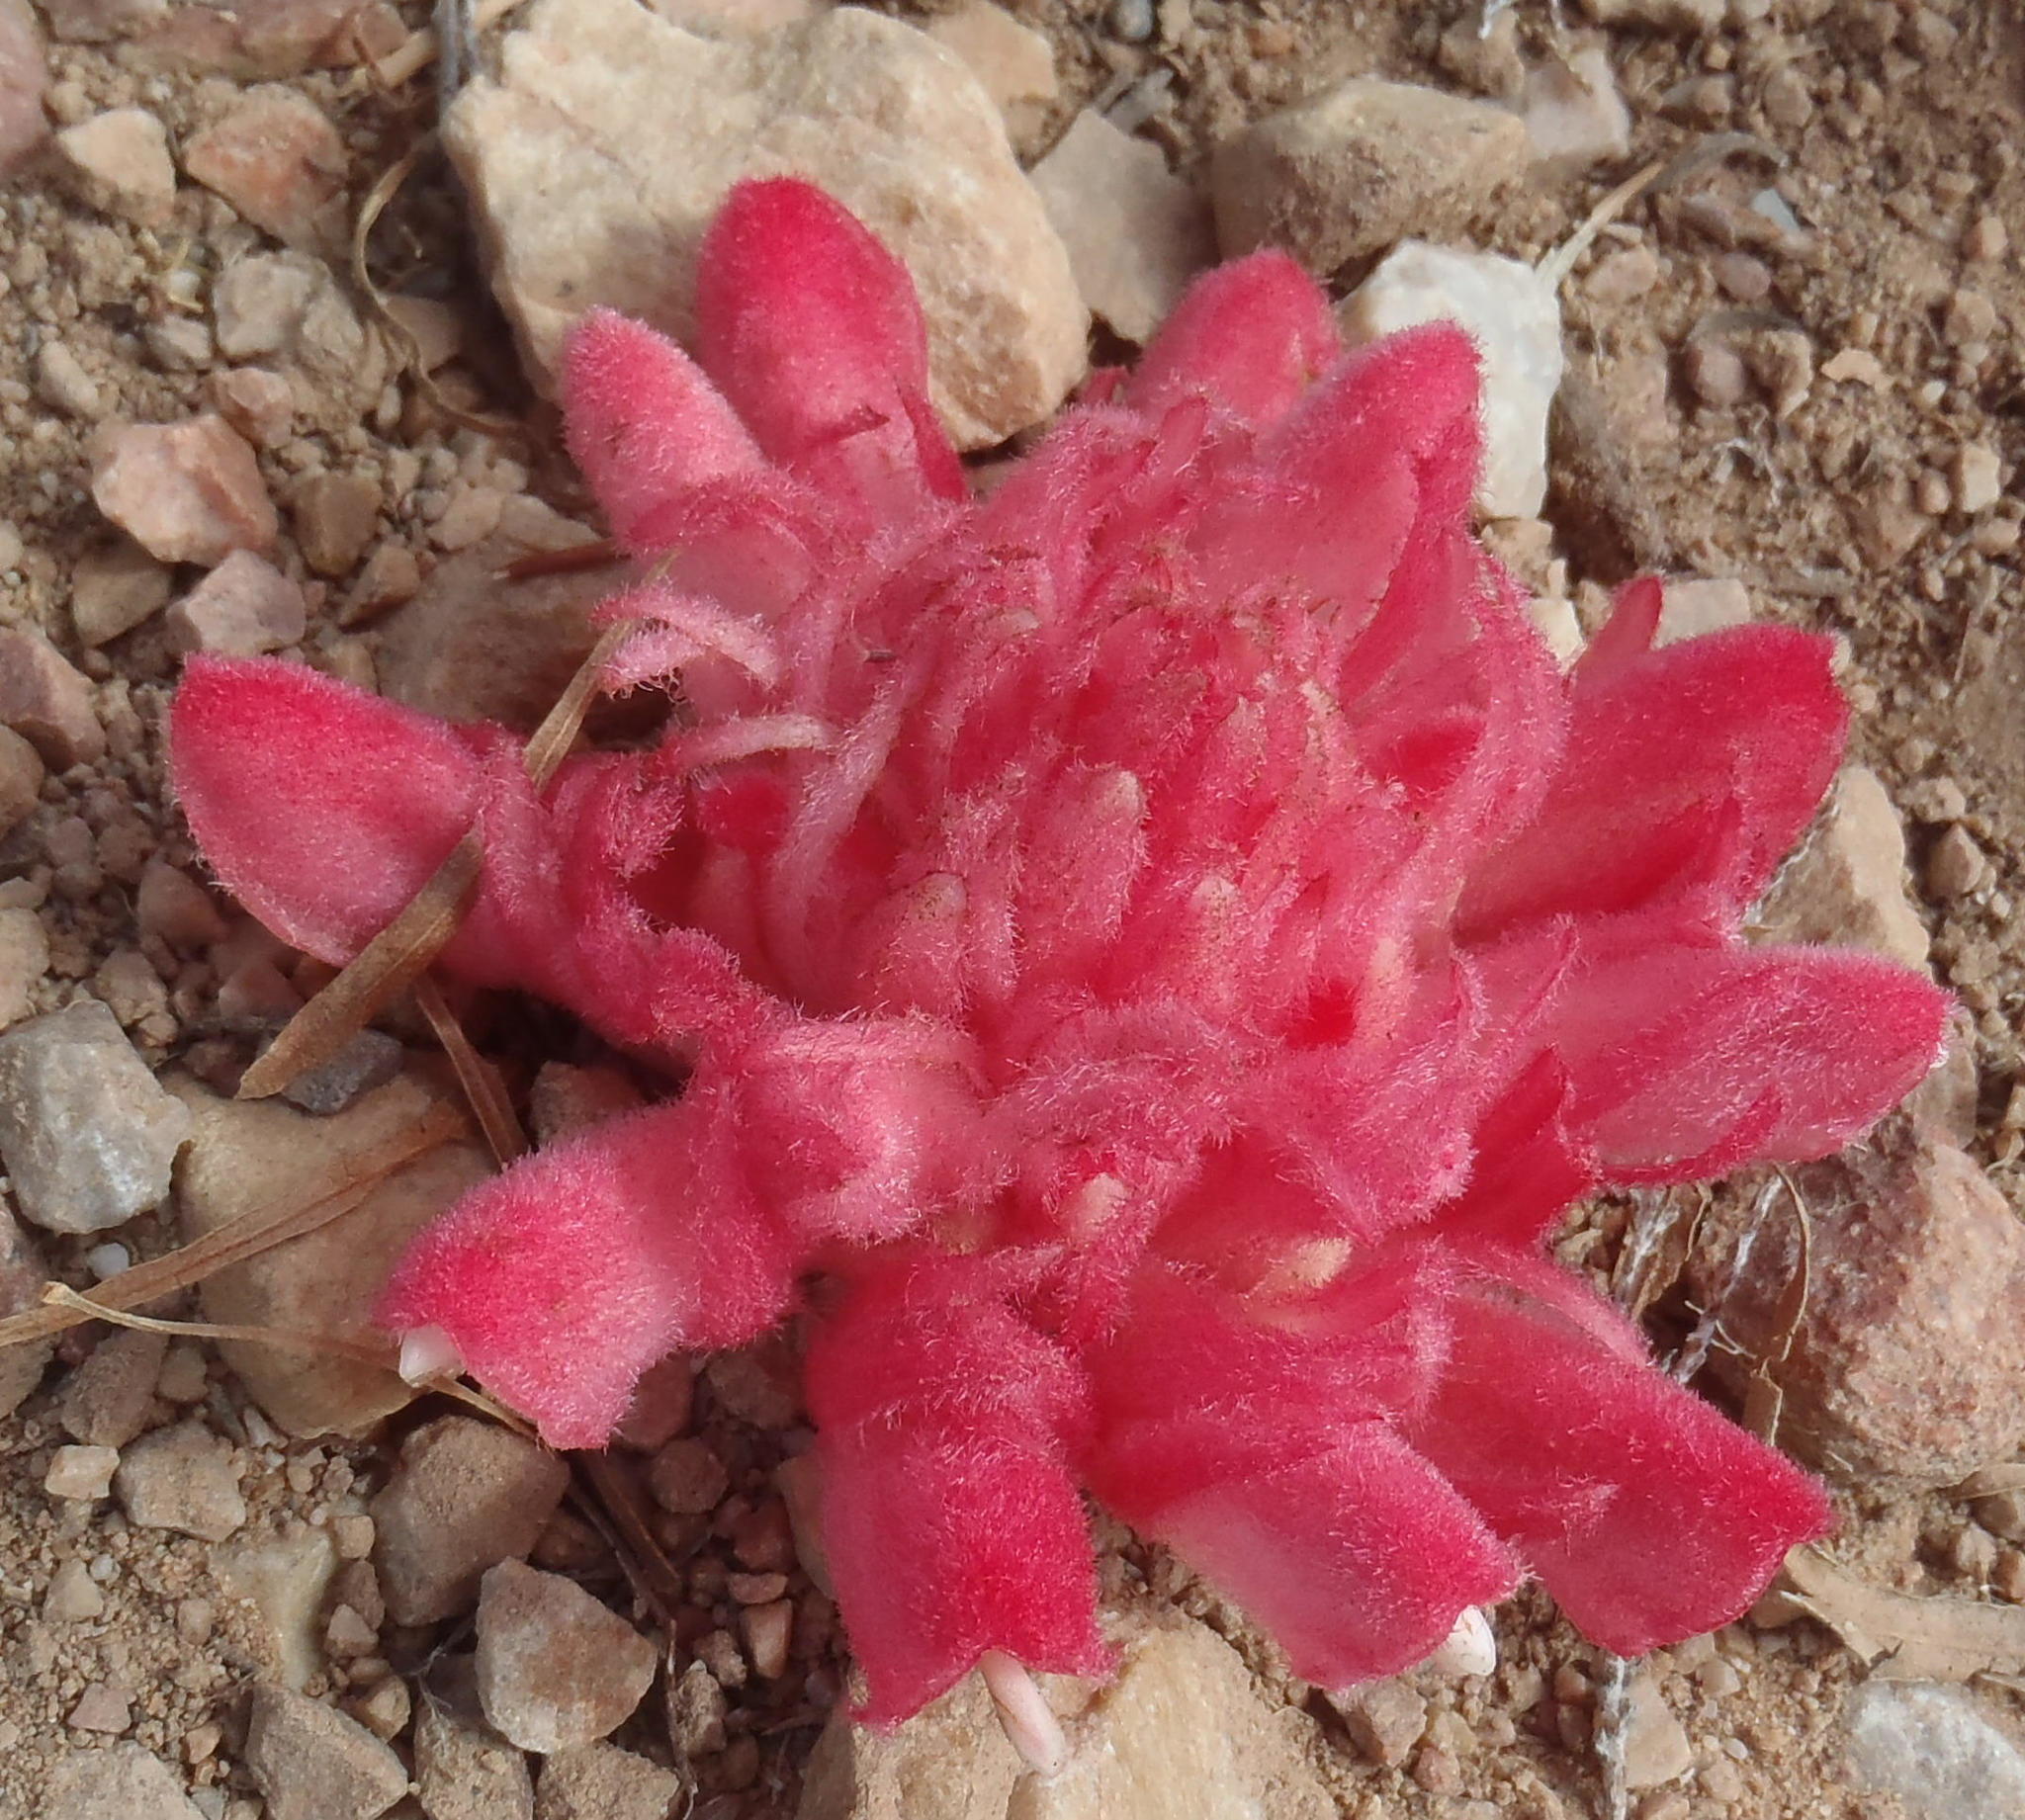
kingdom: Plantae
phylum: Tracheophyta
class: Magnoliopsida
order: Lamiales
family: Orobanchaceae
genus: Hyobanche
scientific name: Hyobanche sanguinea
